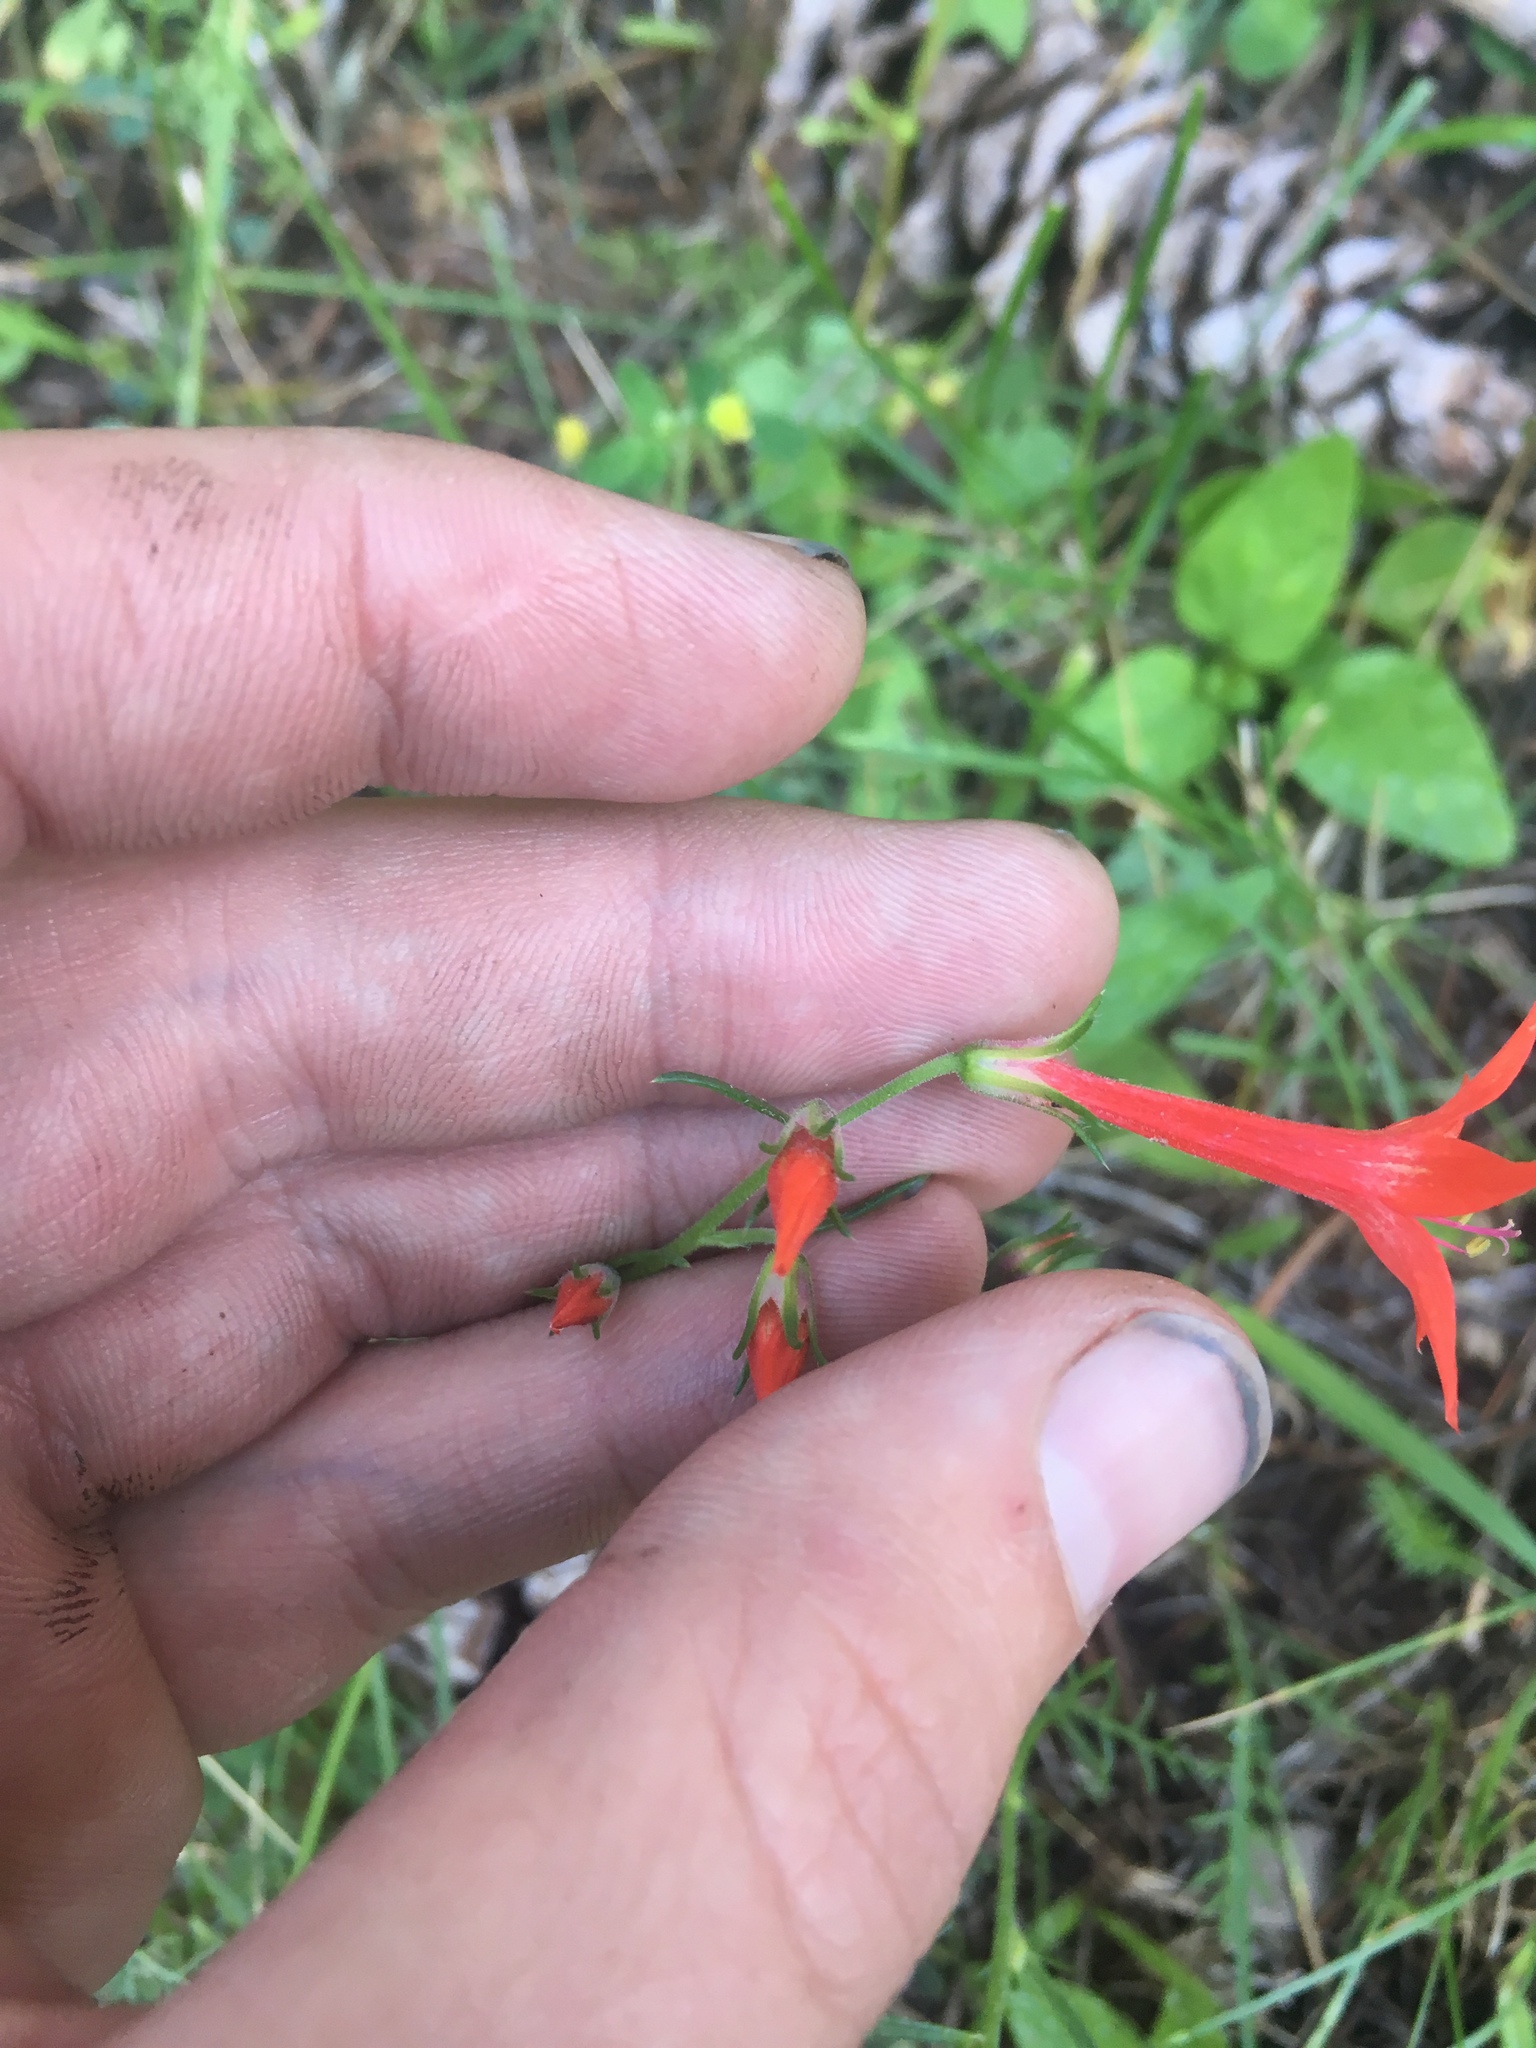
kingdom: Plantae
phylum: Tracheophyta
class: Magnoliopsida
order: Ericales
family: Polemoniaceae
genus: Ipomopsis
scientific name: Ipomopsis aggregata
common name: Scarlet gilia
